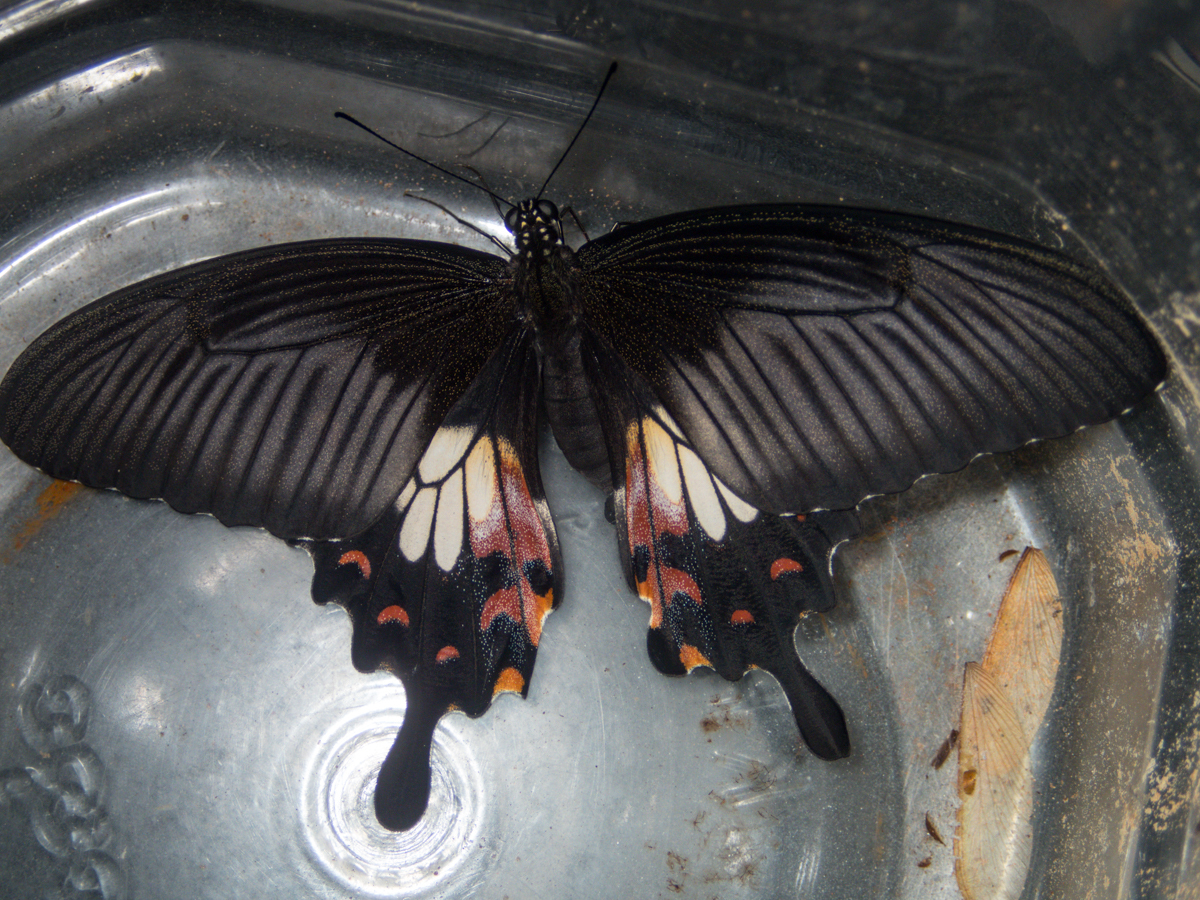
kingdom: Animalia
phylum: Arthropoda
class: Insecta
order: Lepidoptera
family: Papilionidae
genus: Papilio
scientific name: Papilio polytes
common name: Common mormon
